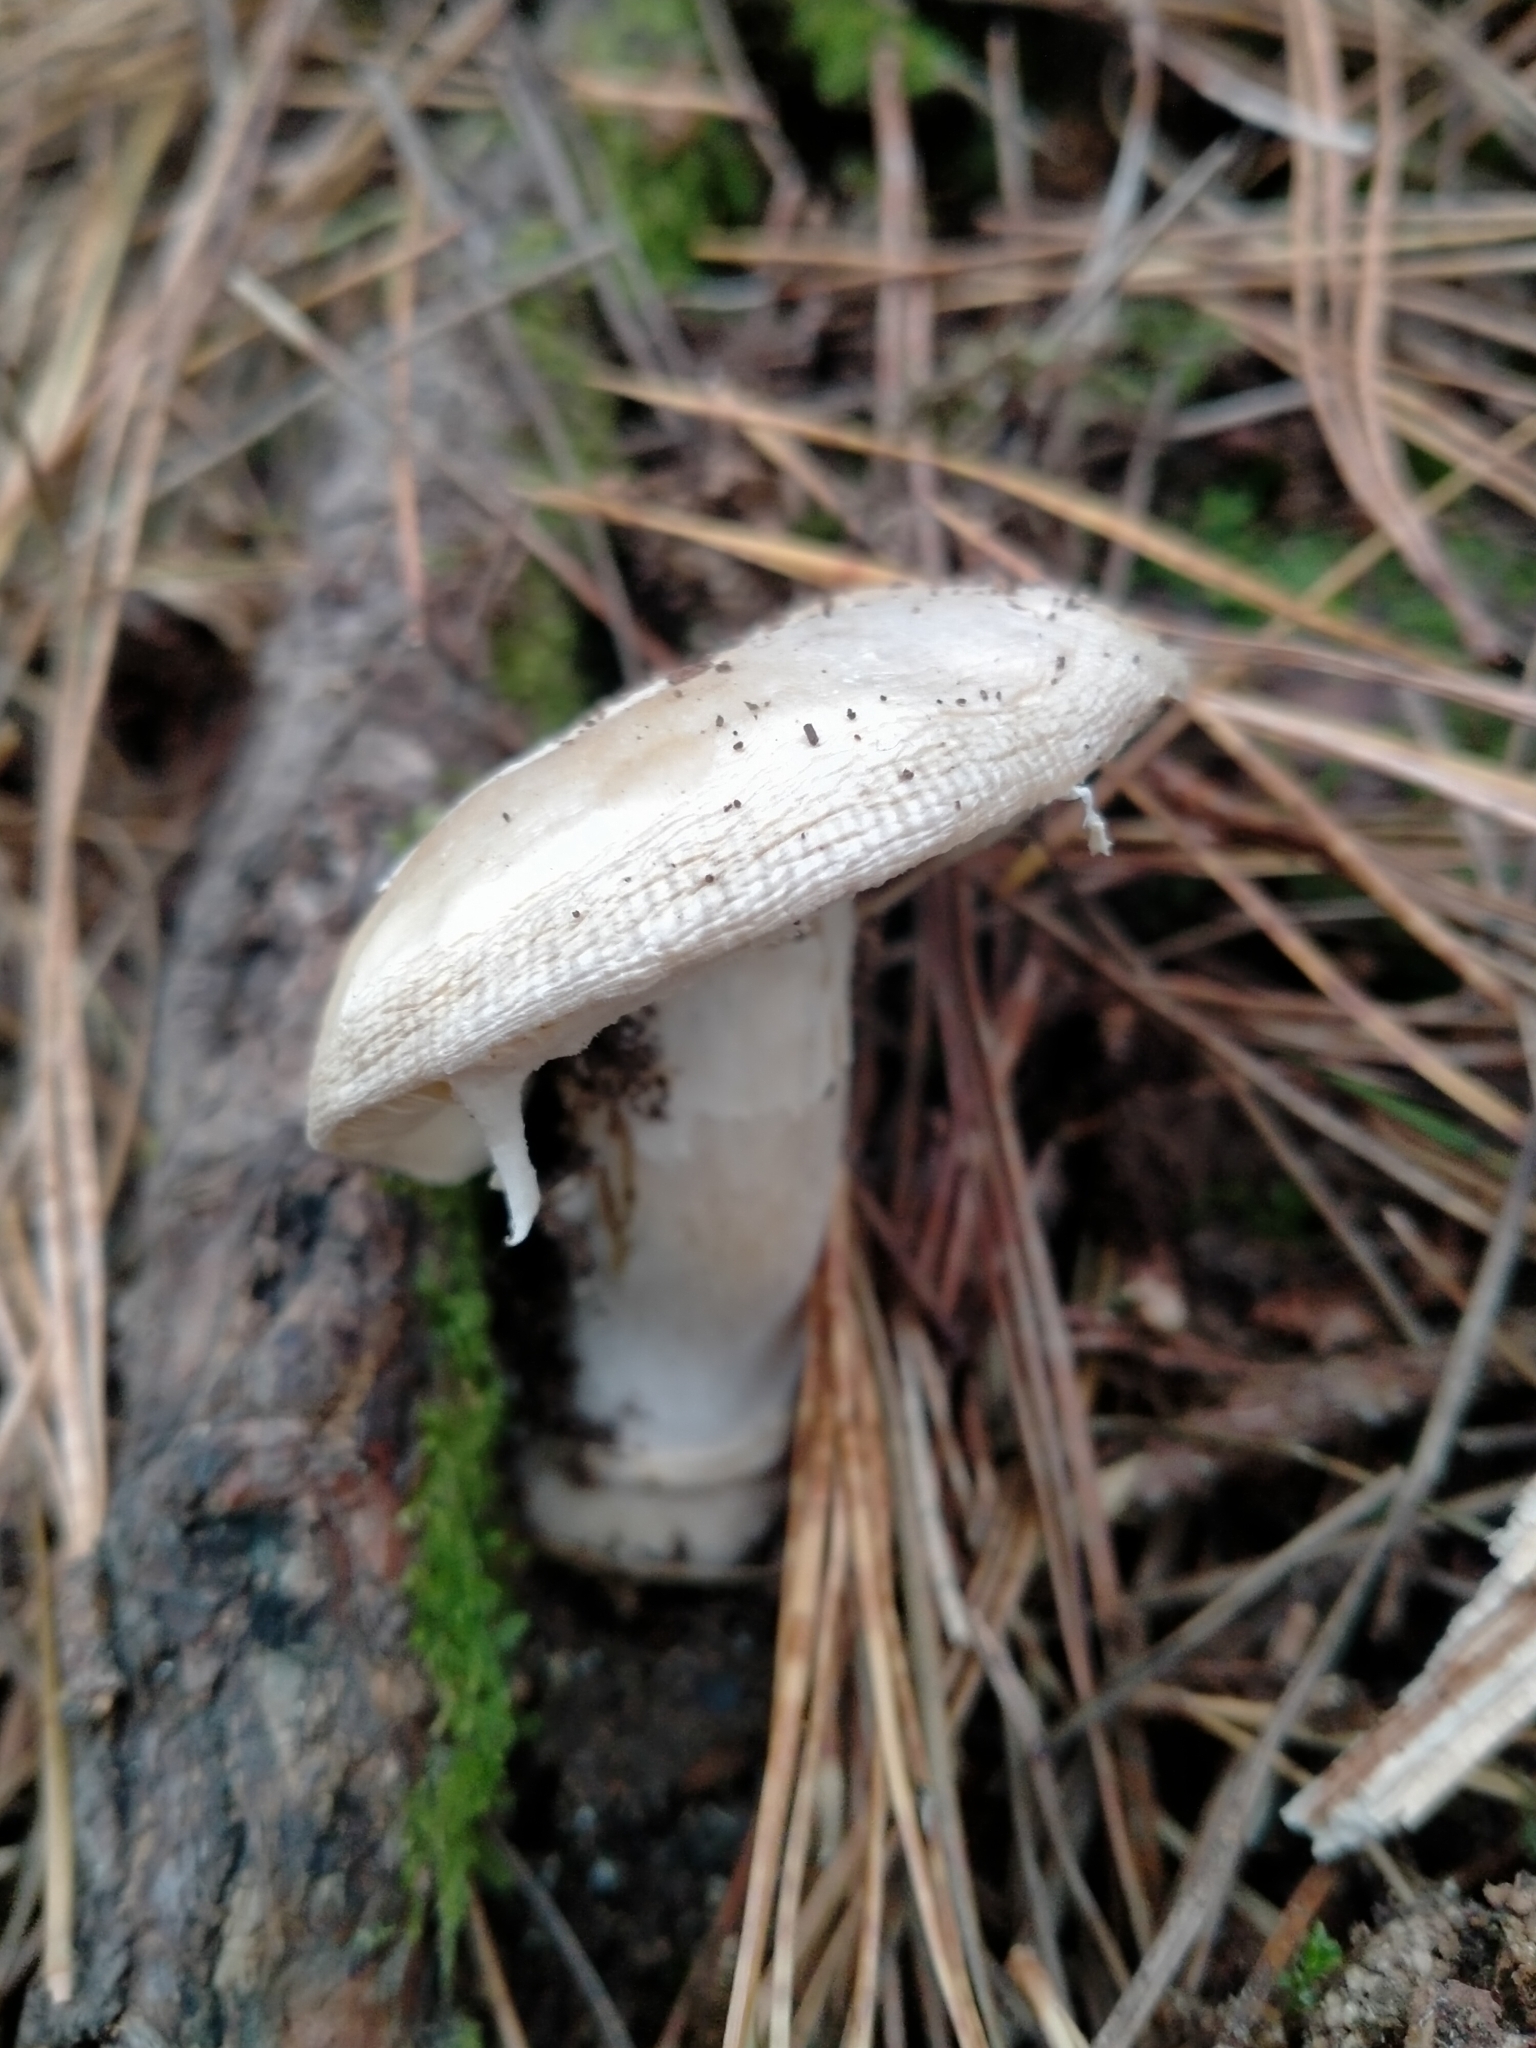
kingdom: Fungi
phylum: Basidiomycota
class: Agaricomycetes
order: Agaricales
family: Amanitaceae
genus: Amanita
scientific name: Amanita gemmata
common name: Jewelled amanita
